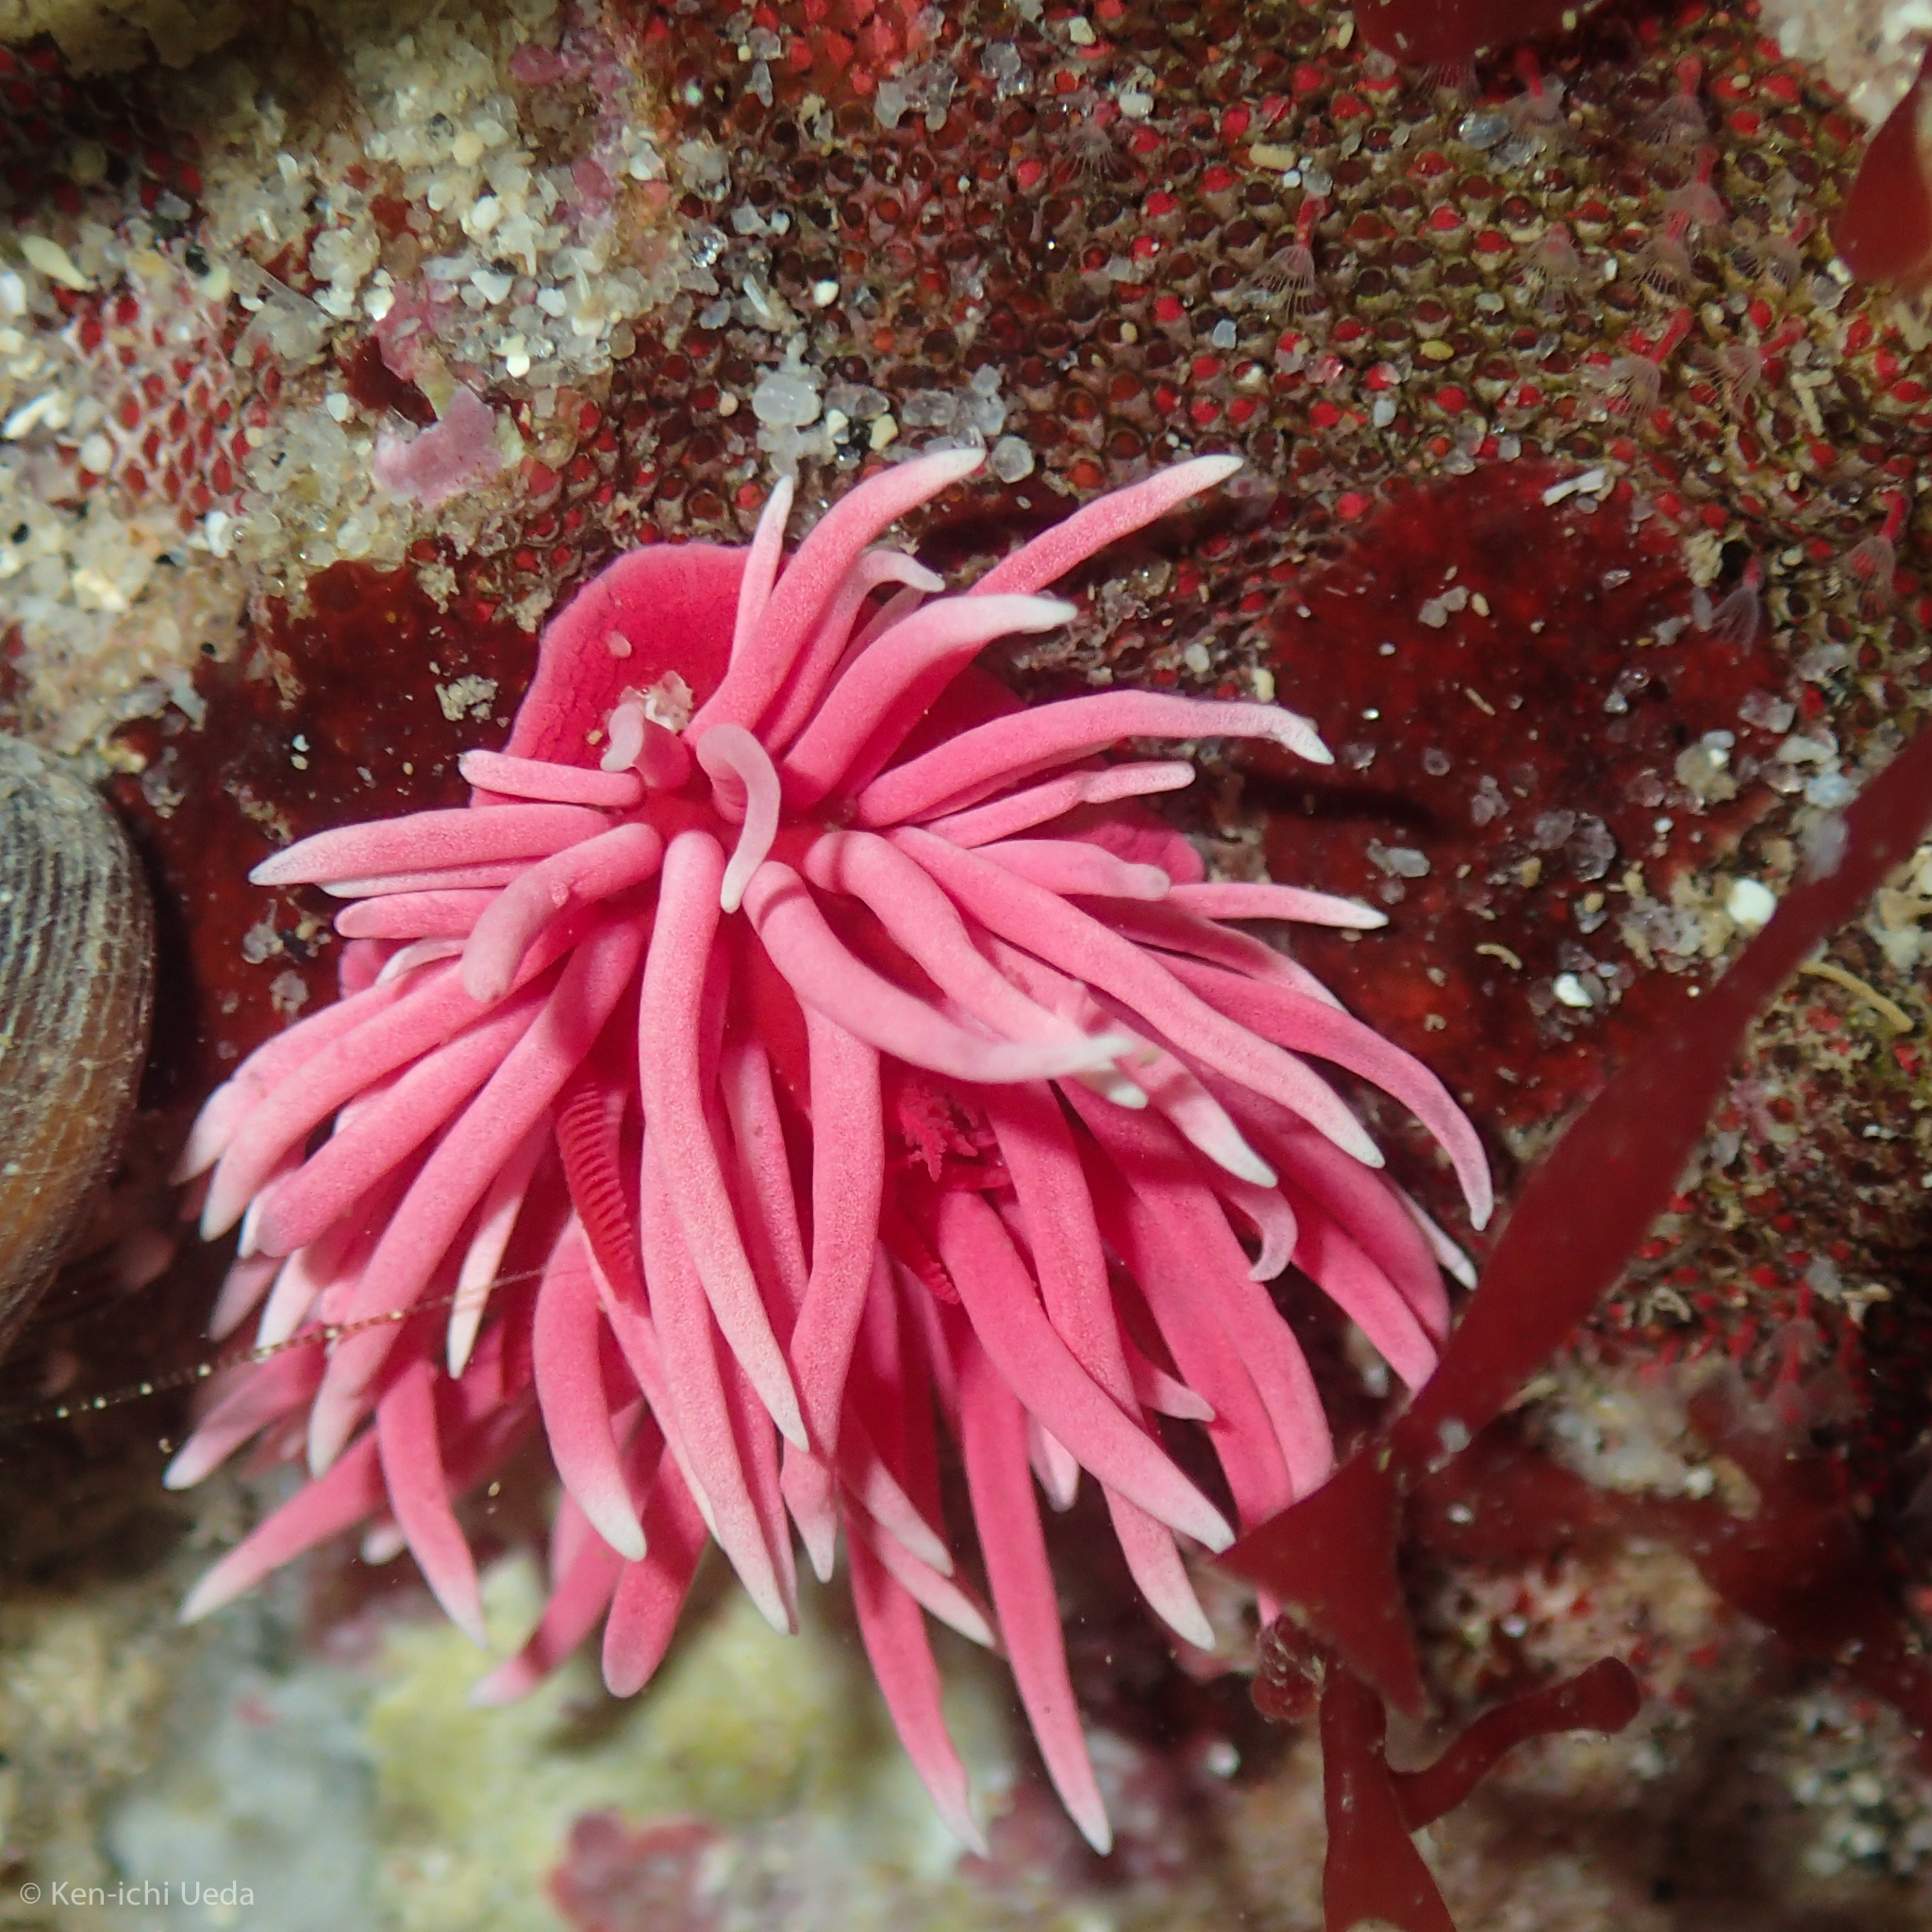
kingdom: Animalia
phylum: Mollusca
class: Gastropoda
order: Nudibranchia
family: Goniodorididae
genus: Okenia
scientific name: Okenia
